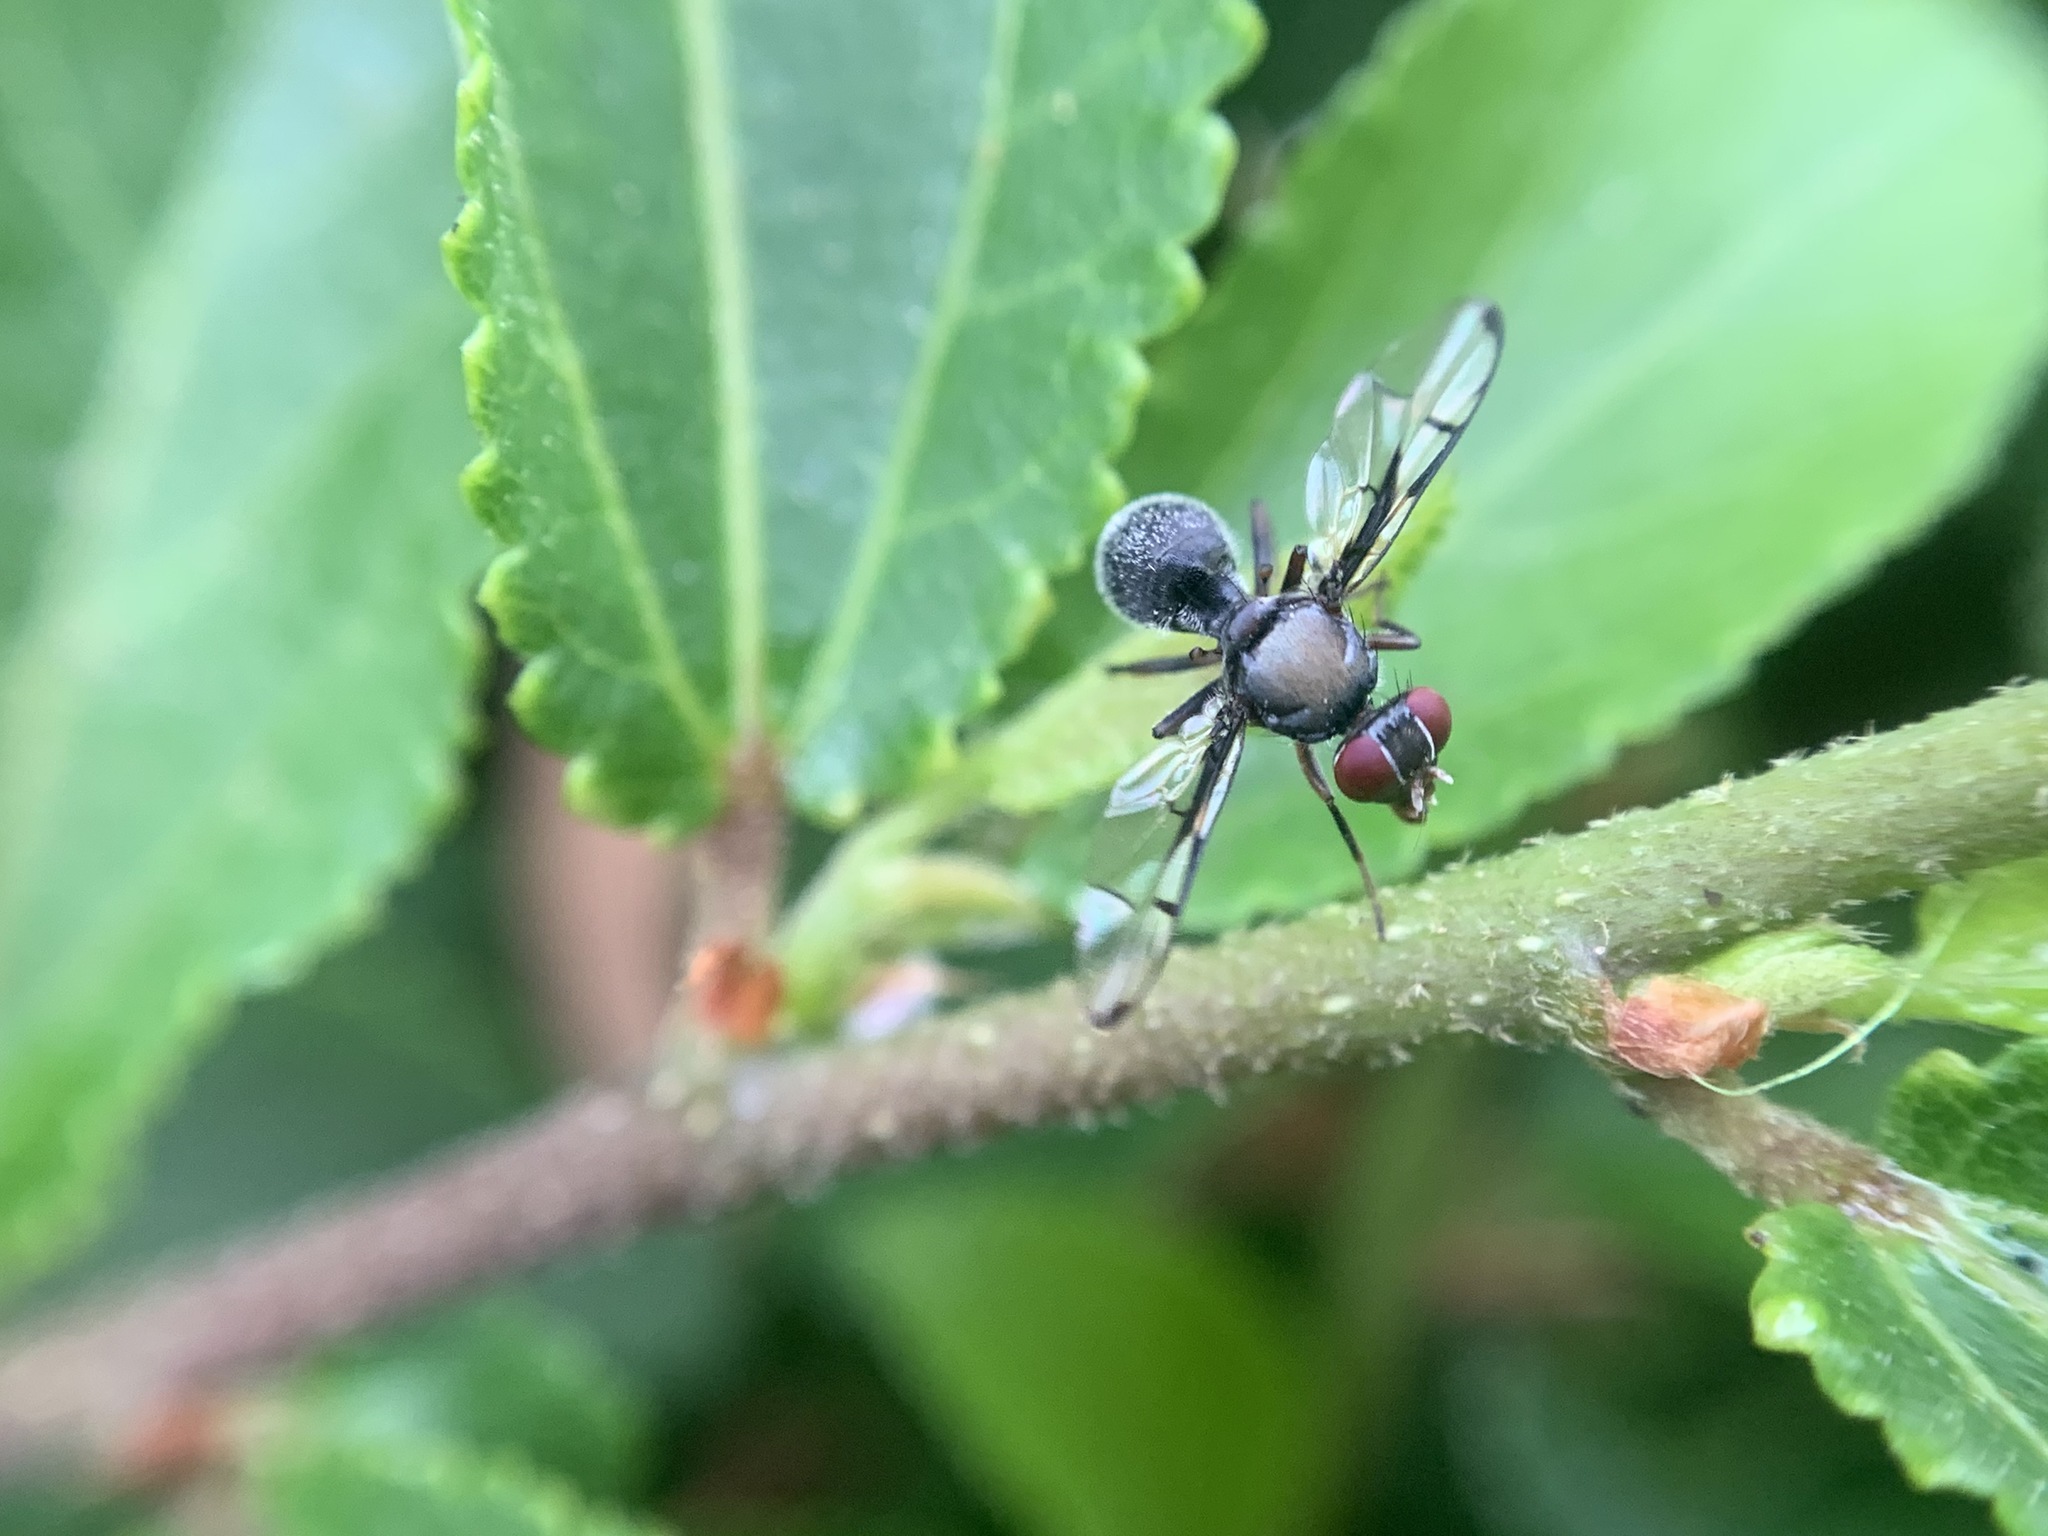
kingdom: Animalia
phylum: Arthropoda
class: Insecta
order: Diptera
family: Platystomatidae
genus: Pogonortalis
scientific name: Pogonortalis doclea
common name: Boatman fly
